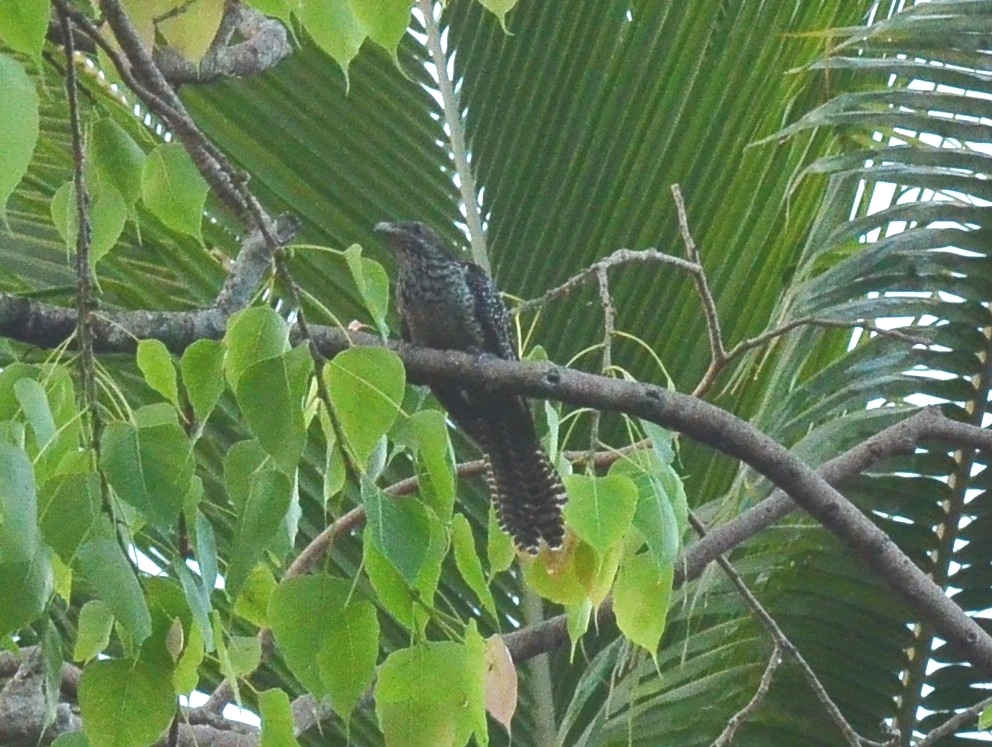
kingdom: Animalia
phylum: Chordata
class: Aves
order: Cuculiformes
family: Cuculidae
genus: Eudynamys
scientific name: Eudynamys scolopaceus
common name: Asian koel
